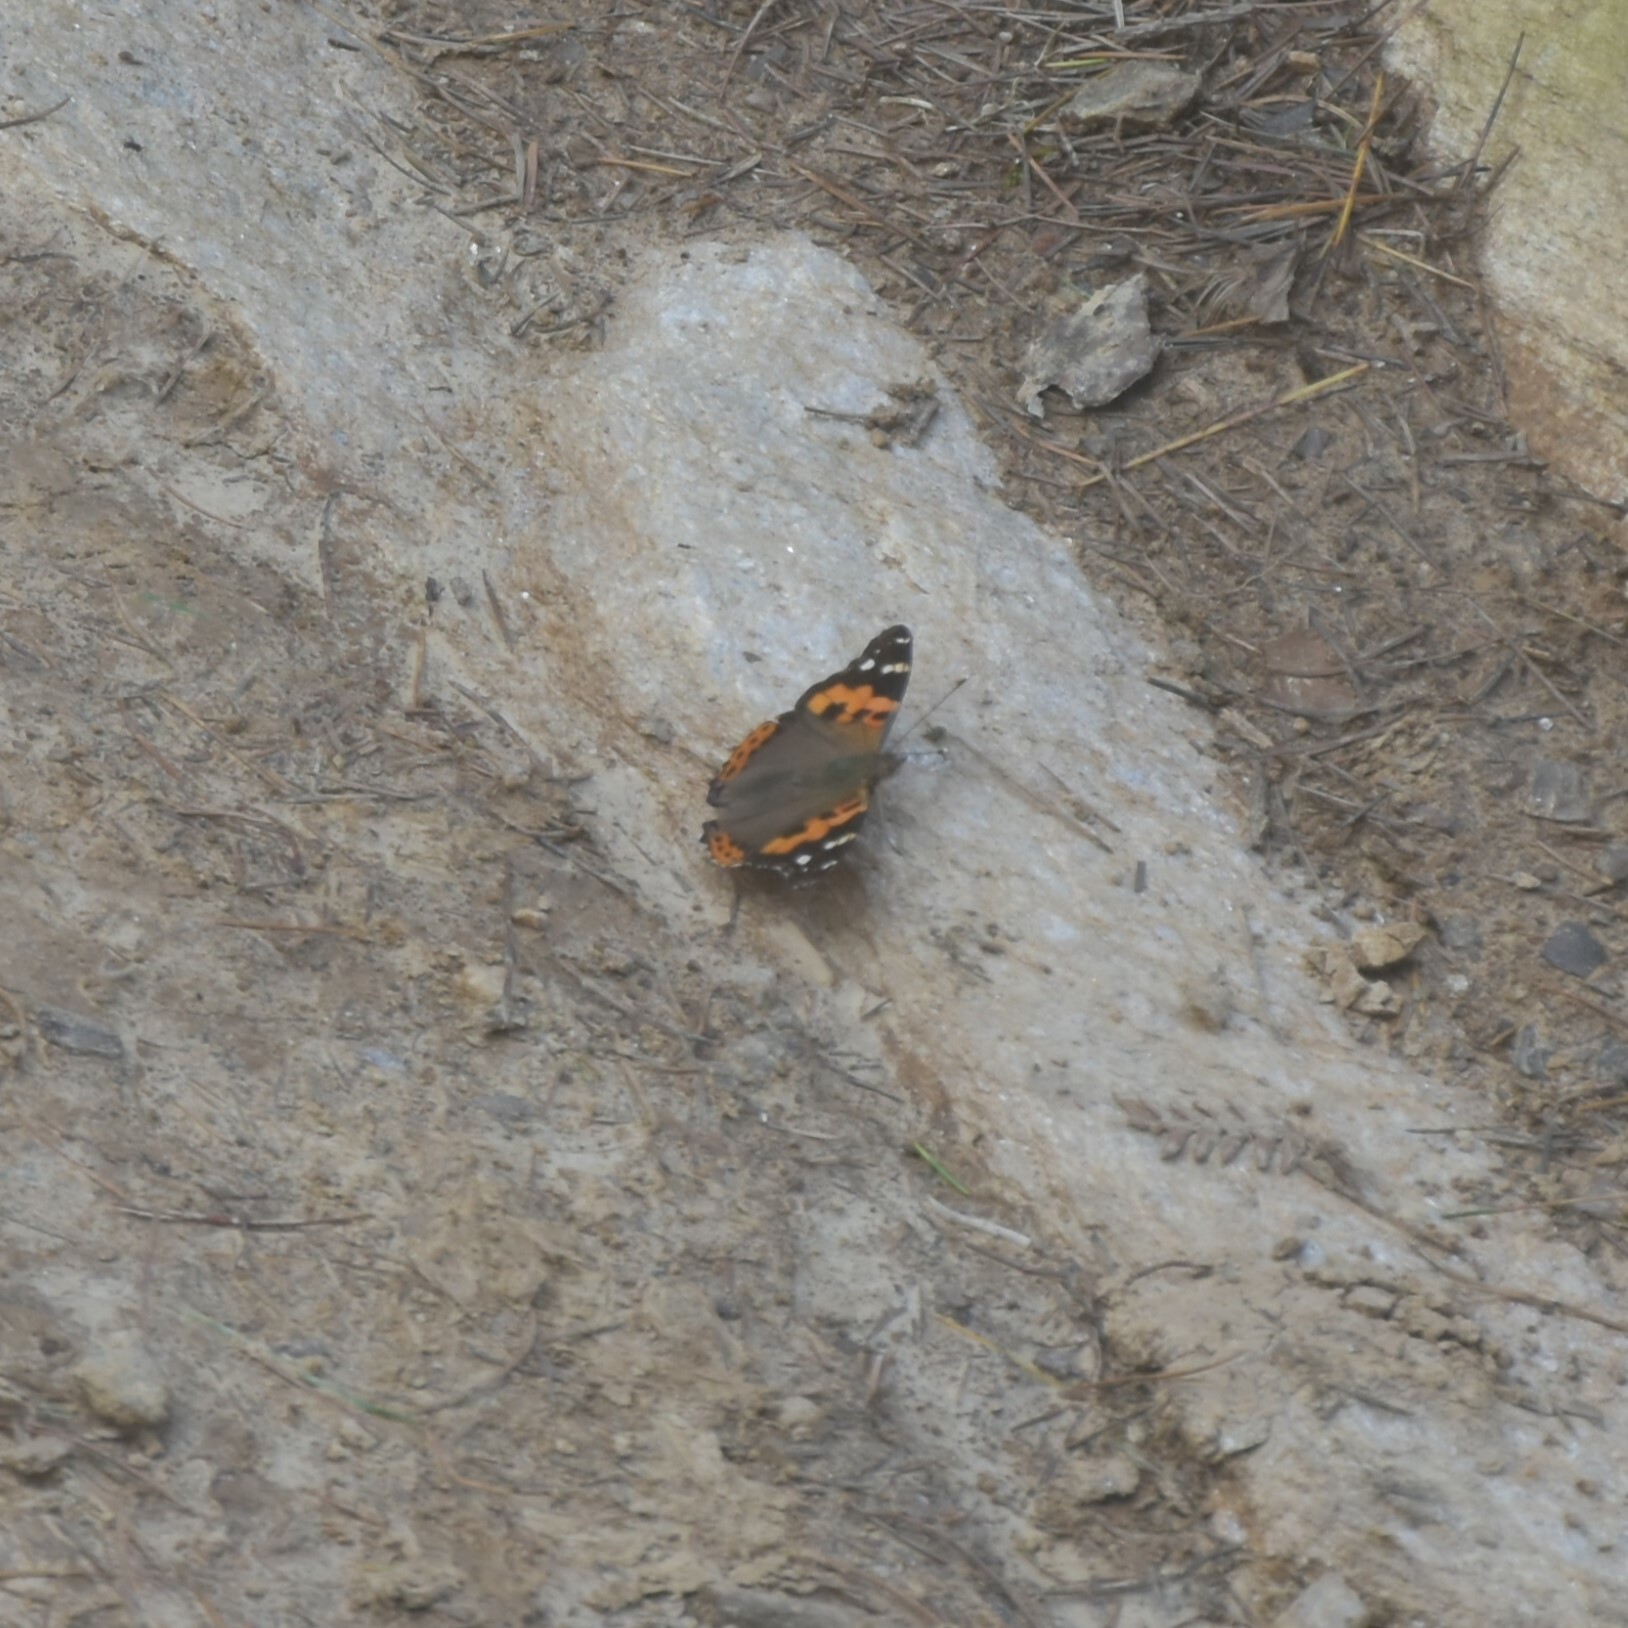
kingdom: Animalia
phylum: Arthropoda
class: Insecta
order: Lepidoptera
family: Nymphalidae
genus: Vanessa
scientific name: Vanessa indica
